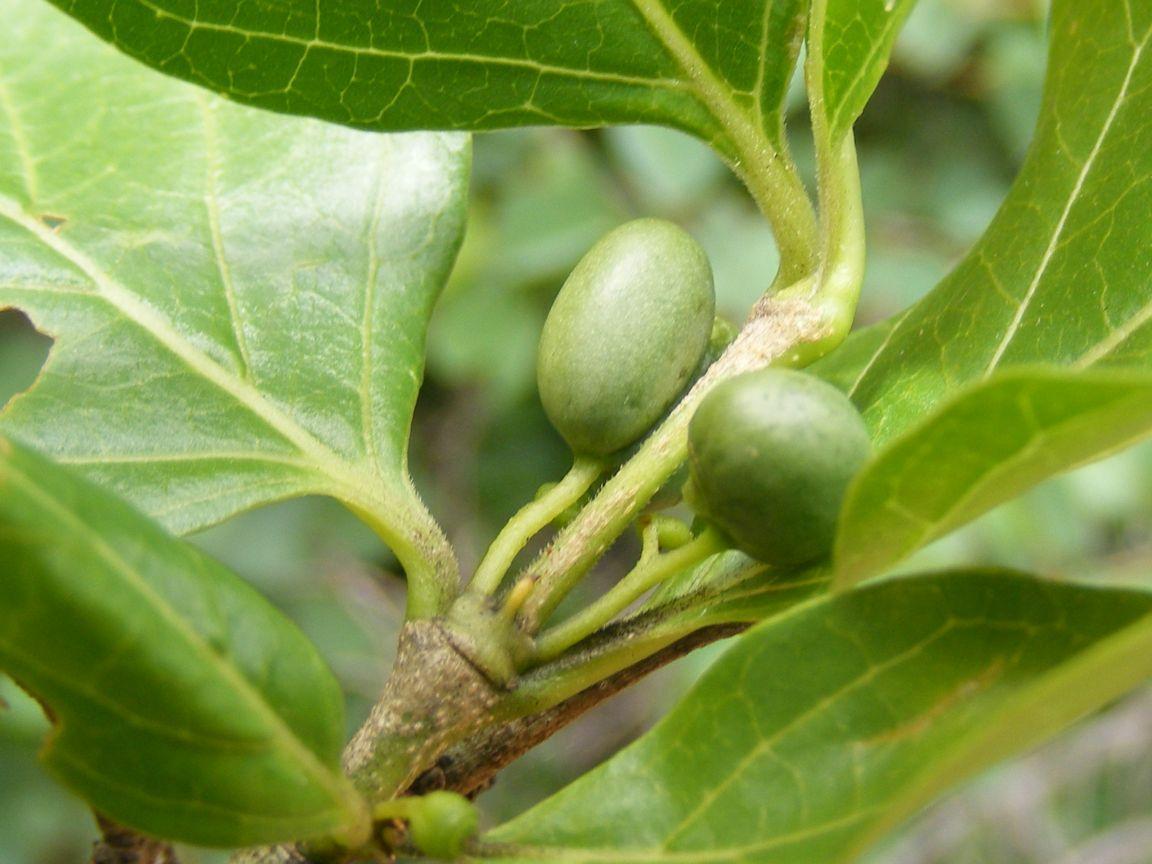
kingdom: Plantae
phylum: Tracheophyta
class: Magnoliopsida
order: Gentianales
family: Rubiaceae
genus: Afrocanthium
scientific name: Afrocanthium mundianum
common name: Rock-alder
